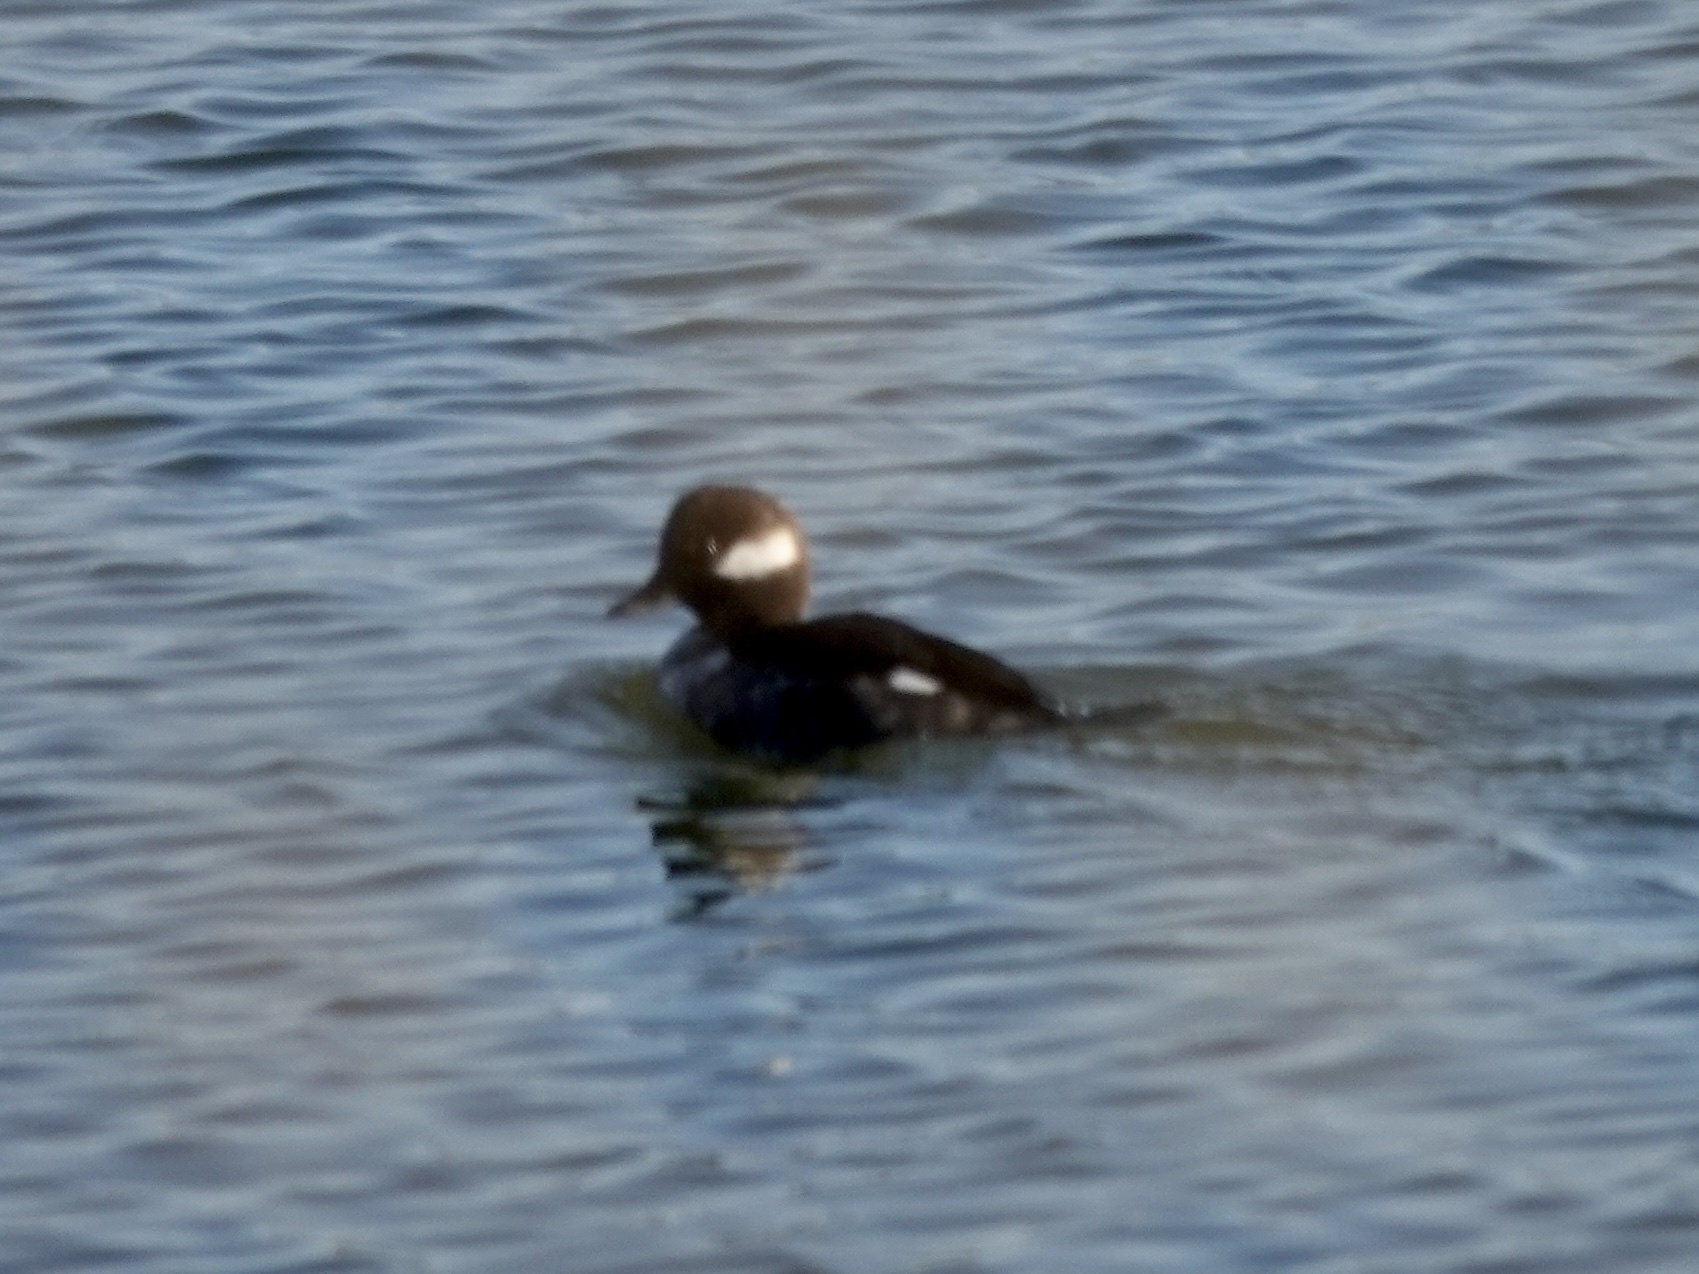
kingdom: Animalia
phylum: Chordata
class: Aves
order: Anseriformes
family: Anatidae
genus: Bucephala
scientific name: Bucephala albeola
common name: Bufflehead
